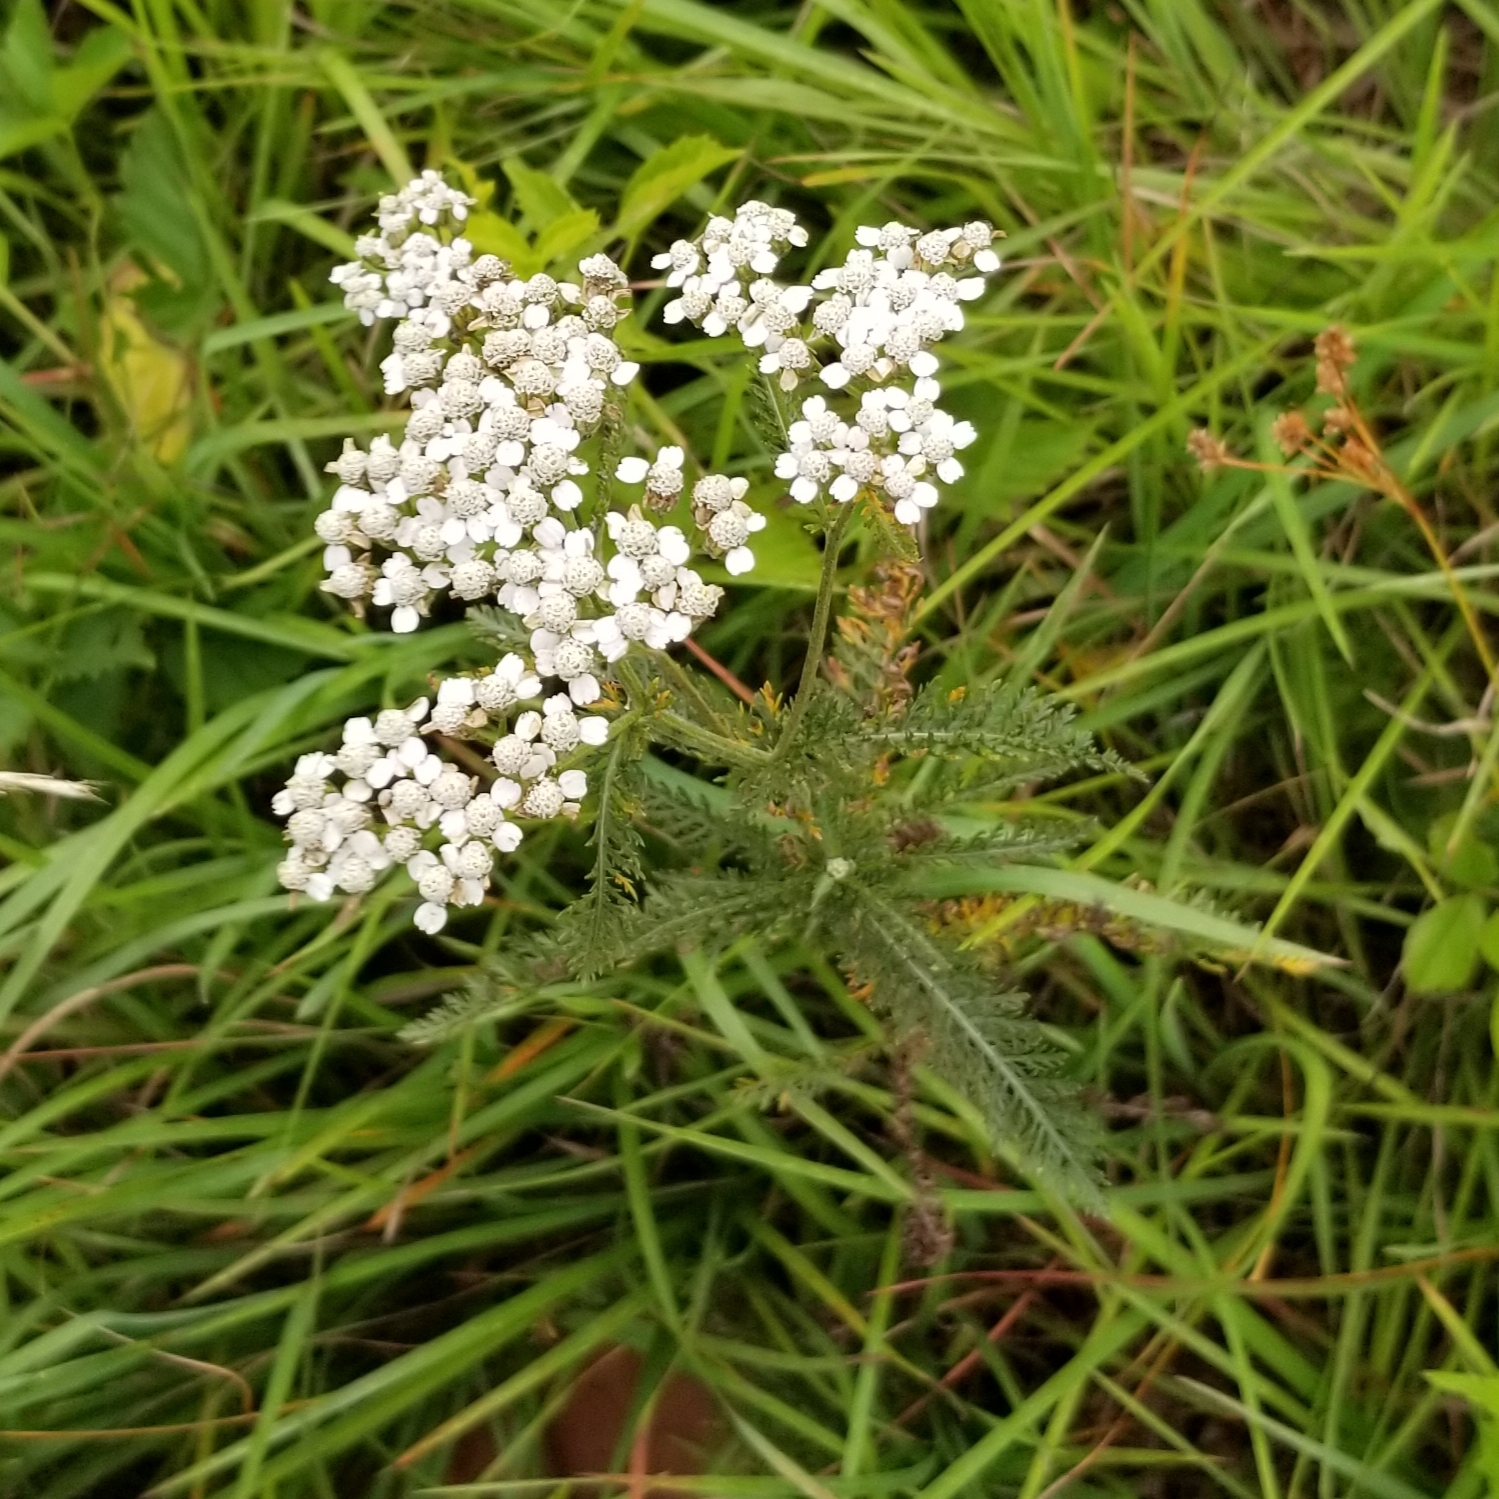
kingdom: Plantae
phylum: Tracheophyta
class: Magnoliopsida
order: Asterales
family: Asteraceae
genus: Achillea
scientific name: Achillea millefolium
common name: Yarrow
